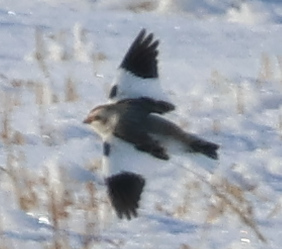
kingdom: Animalia
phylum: Chordata
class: Aves
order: Passeriformes
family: Calcariidae
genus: Plectrophenax
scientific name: Plectrophenax nivalis
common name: Snow bunting
